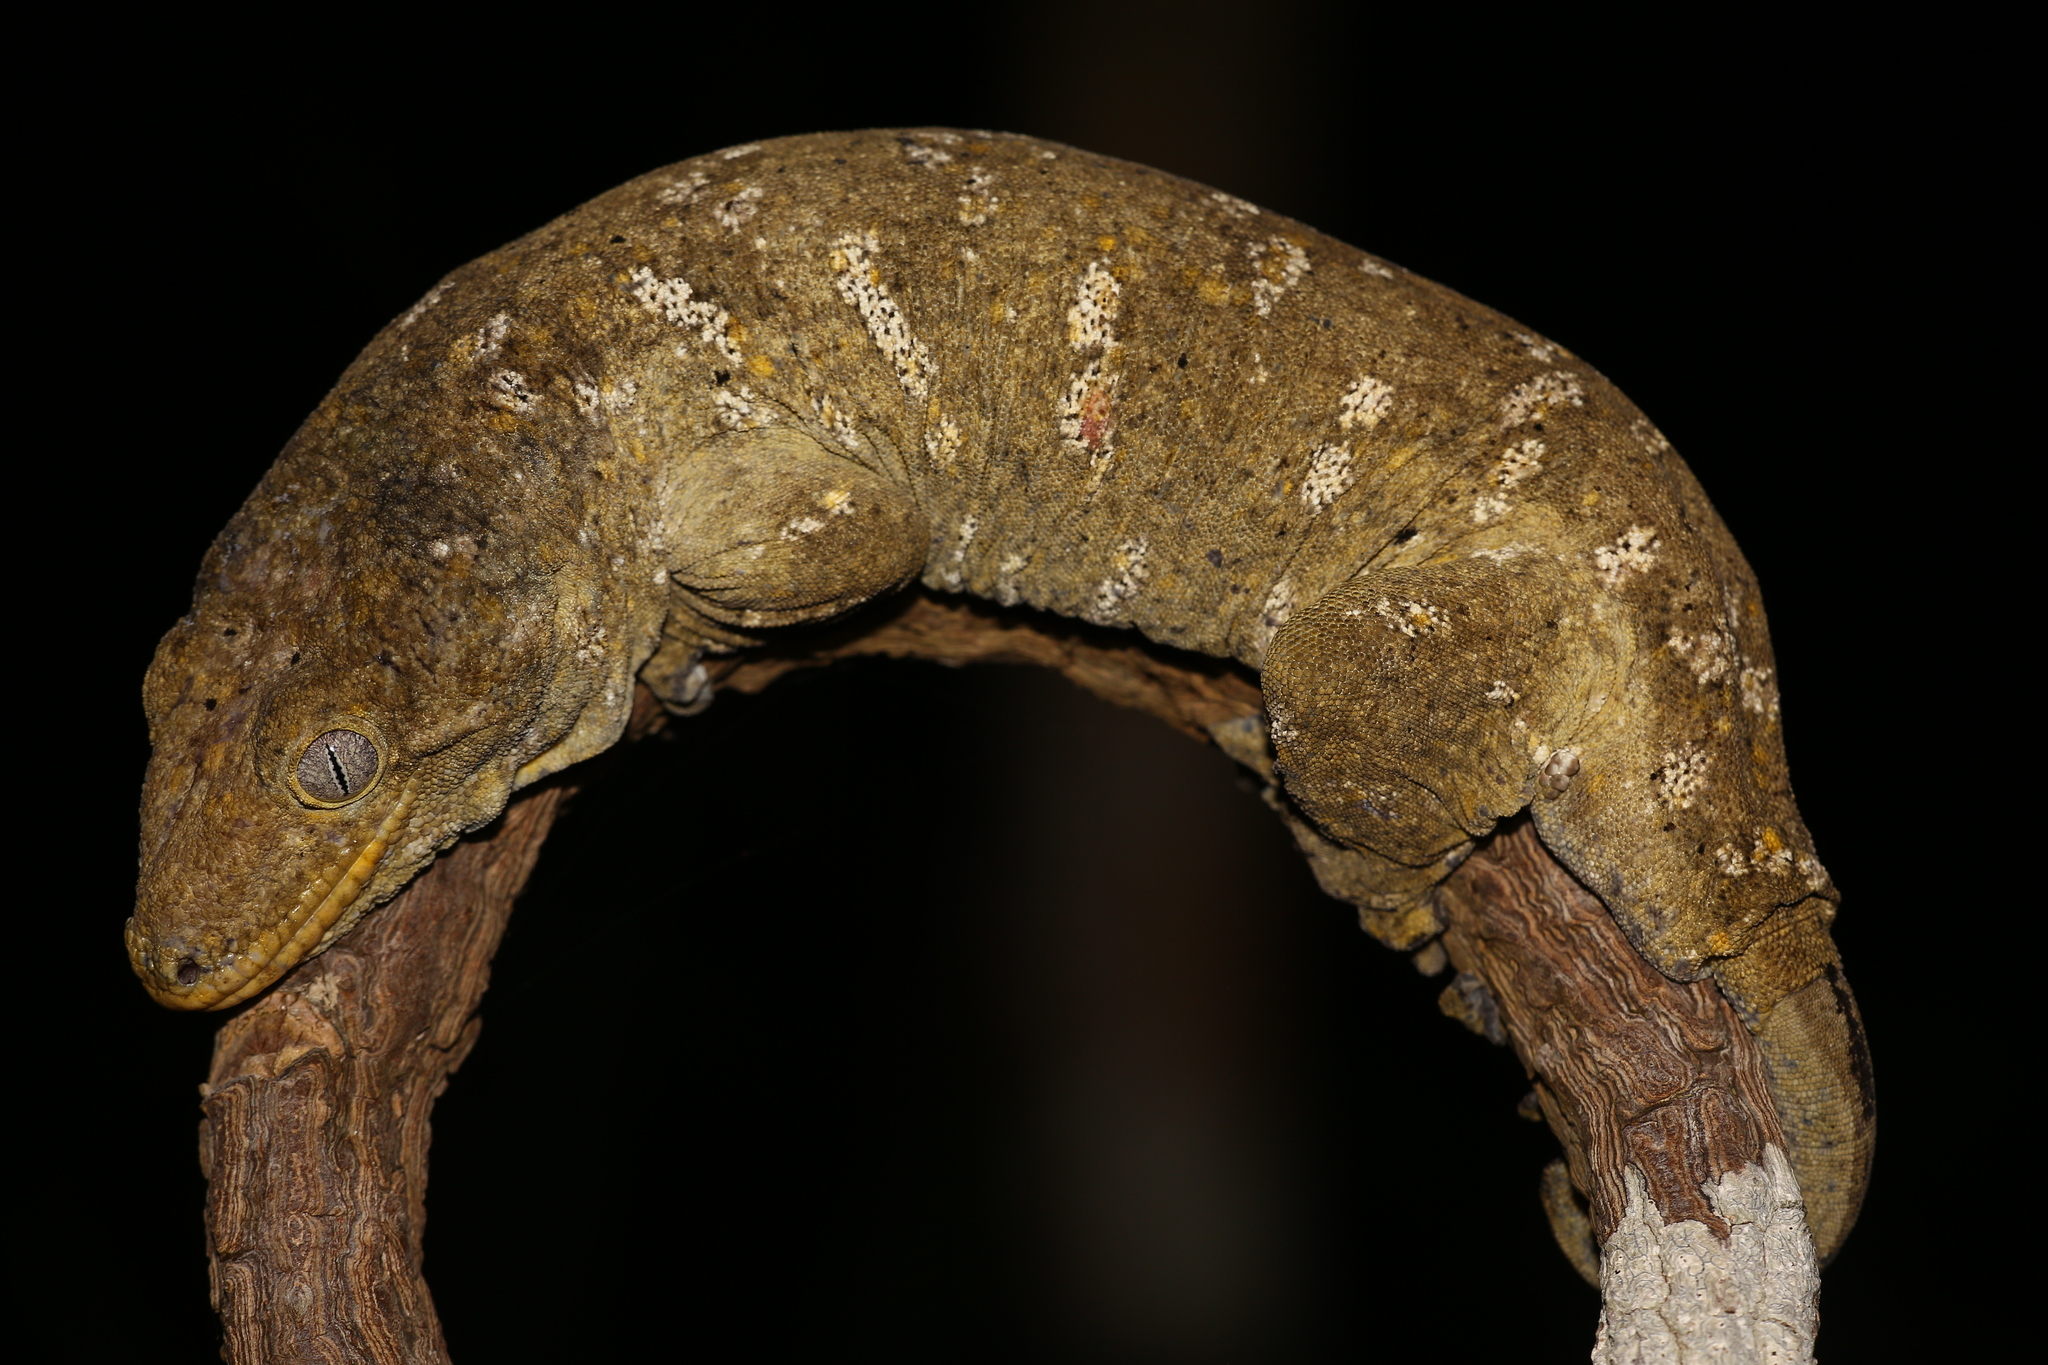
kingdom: Animalia
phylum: Chordata
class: Squamata
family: Diplodactylidae
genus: Rhacodactylus
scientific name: Rhacodactylus leachianus
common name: New caledonia giant gecko
